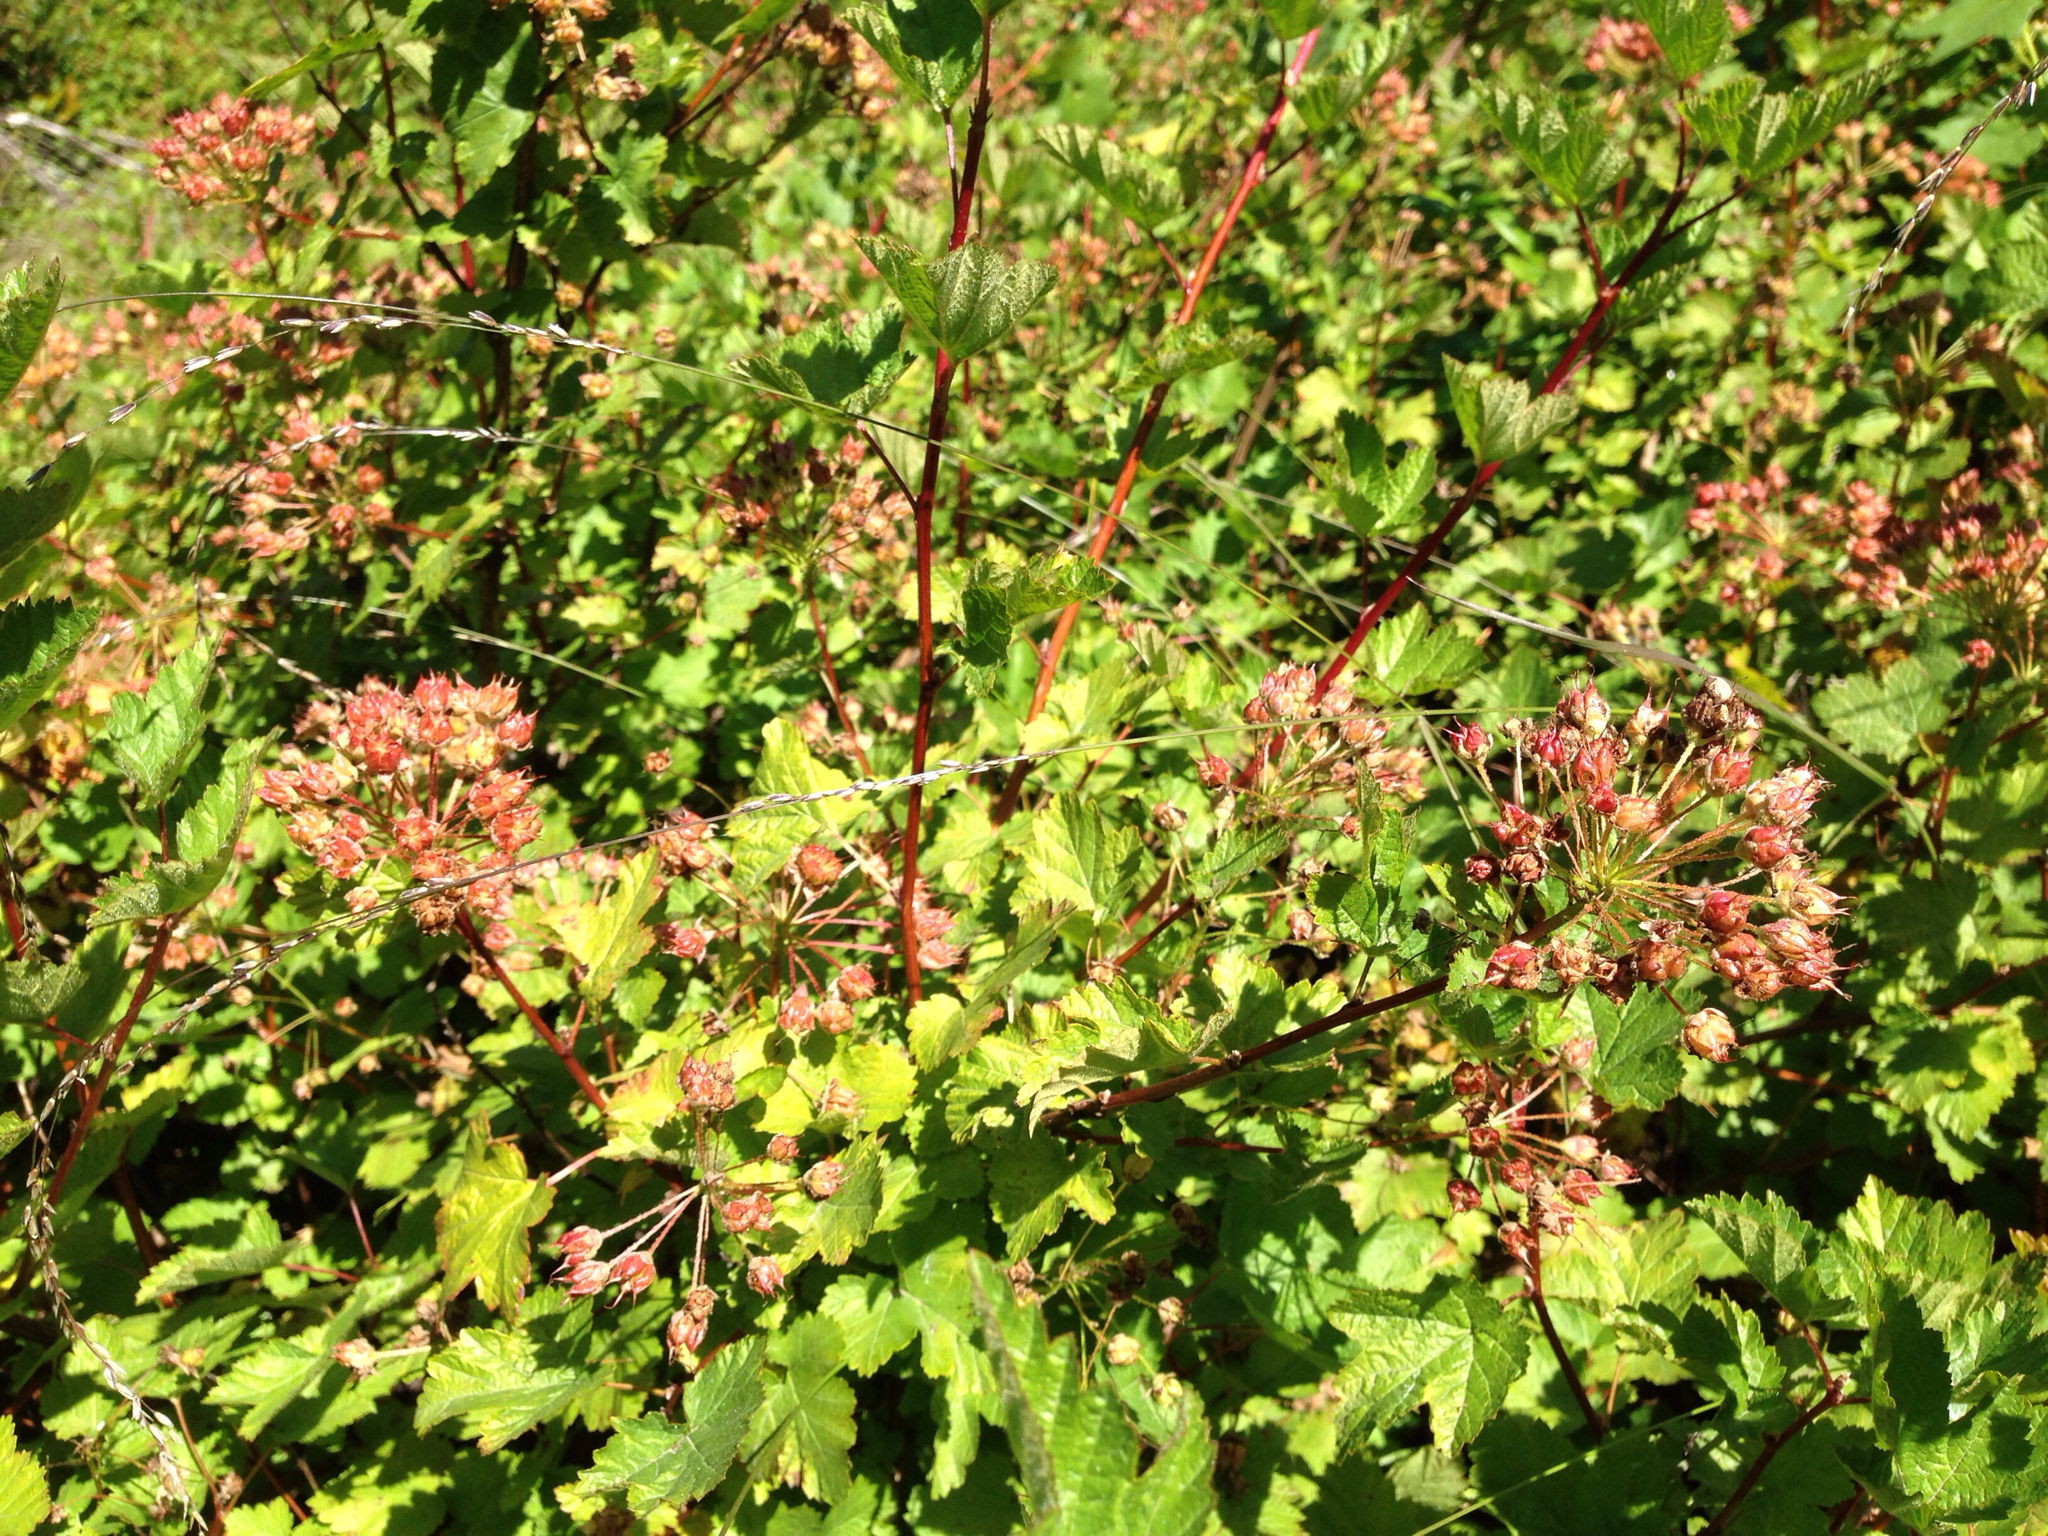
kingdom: Plantae
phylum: Tracheophyta
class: Magnoliopsida
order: Rosales
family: Rosaceae
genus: Physocarpus
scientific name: Physocarpus capitatus
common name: Pacific ninebark
